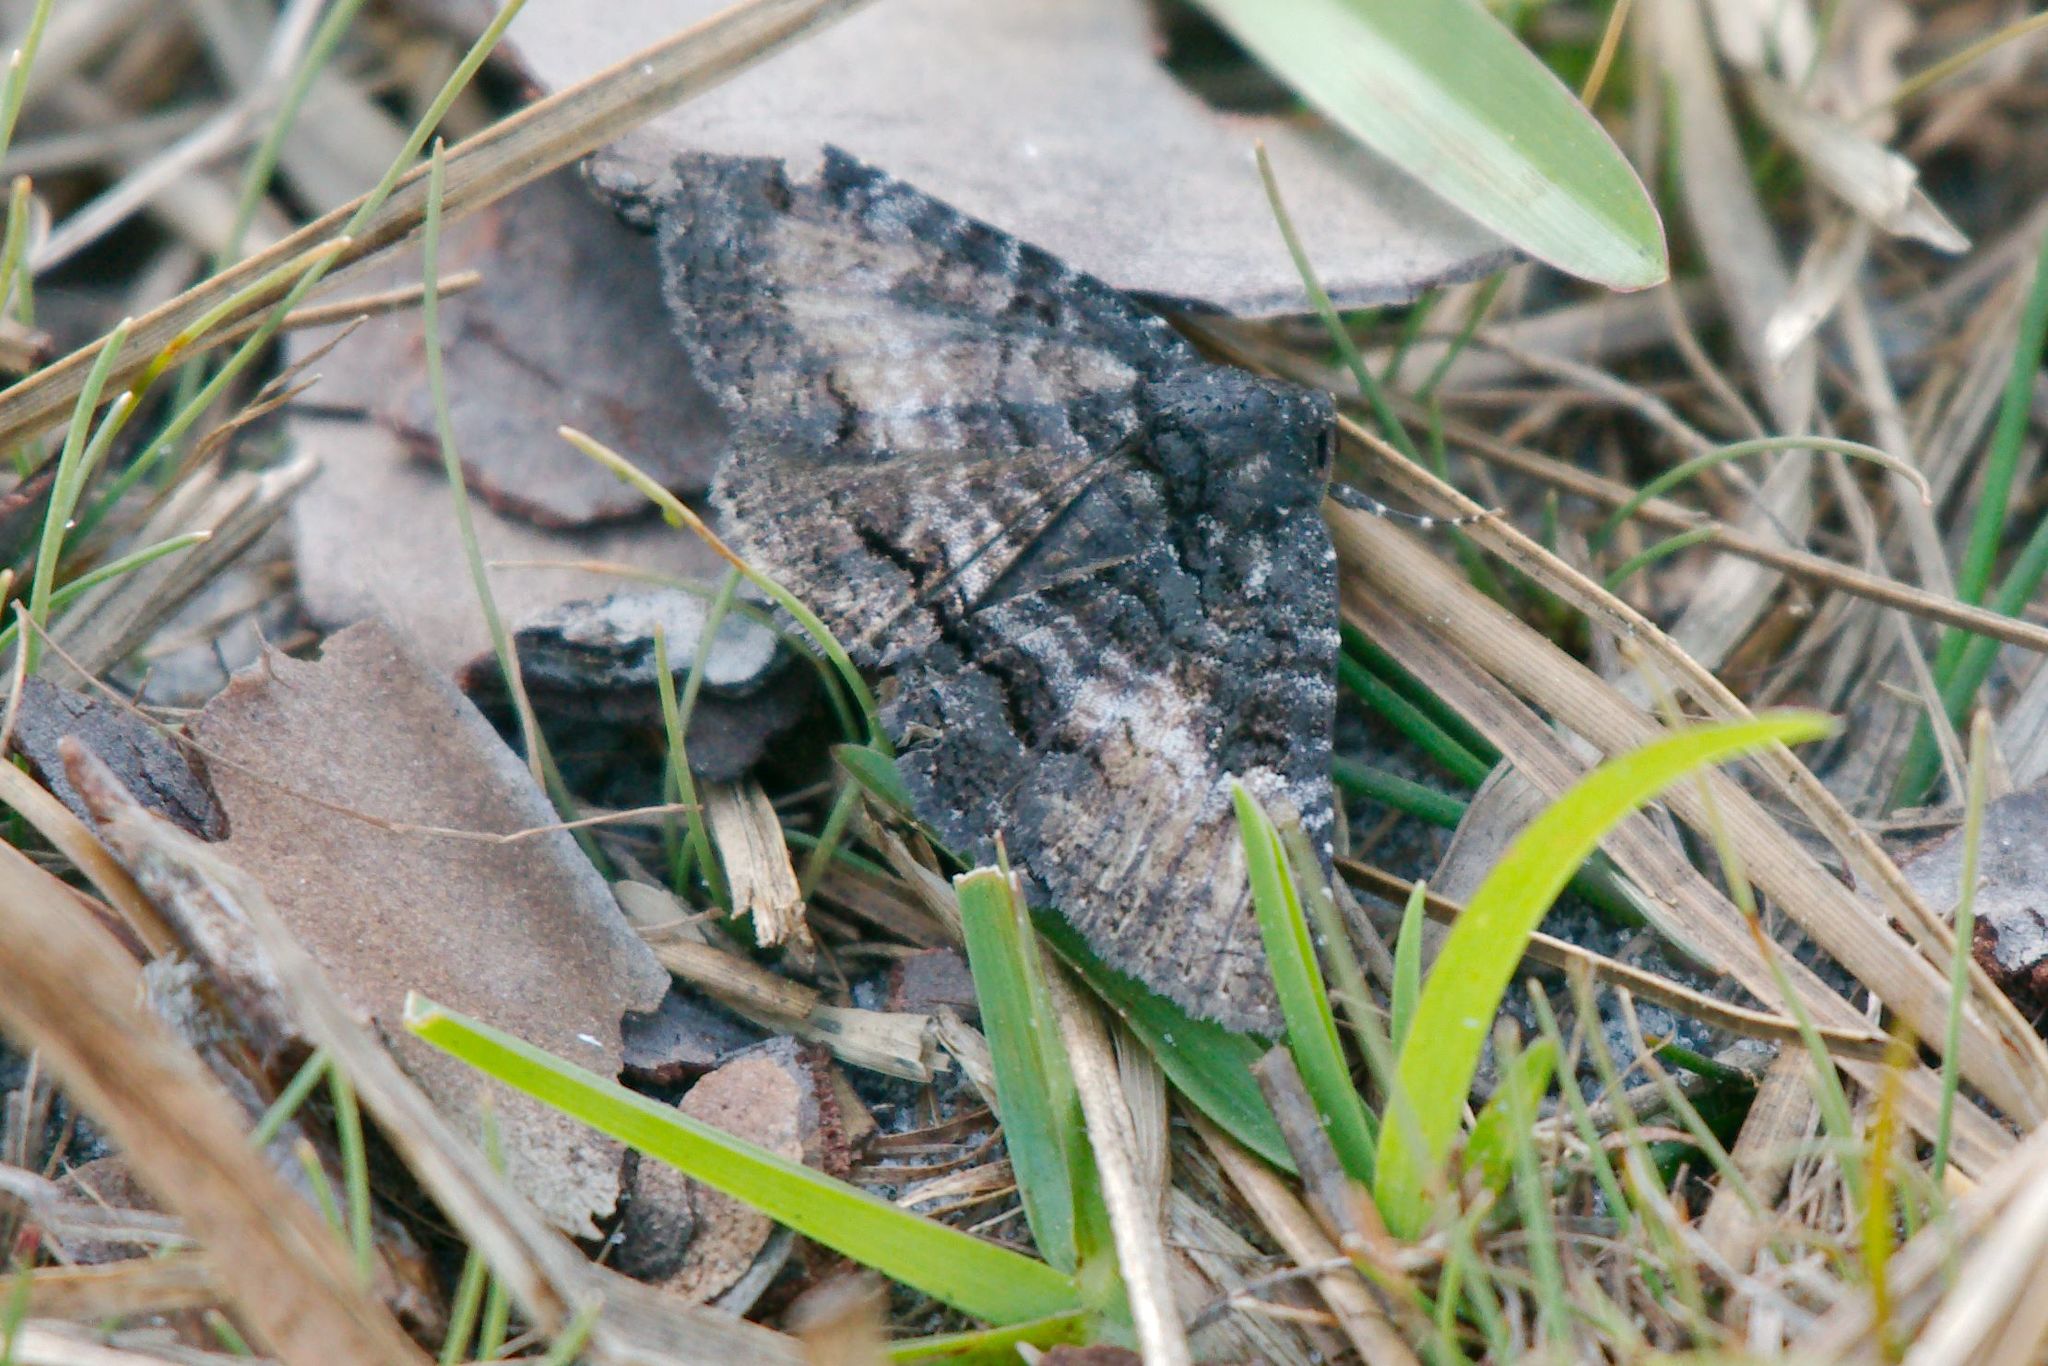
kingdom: Animalia
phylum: Arthropoda
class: Insecta
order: Lepidoptera
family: Erebidae
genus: Zale
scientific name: Zale coracias
